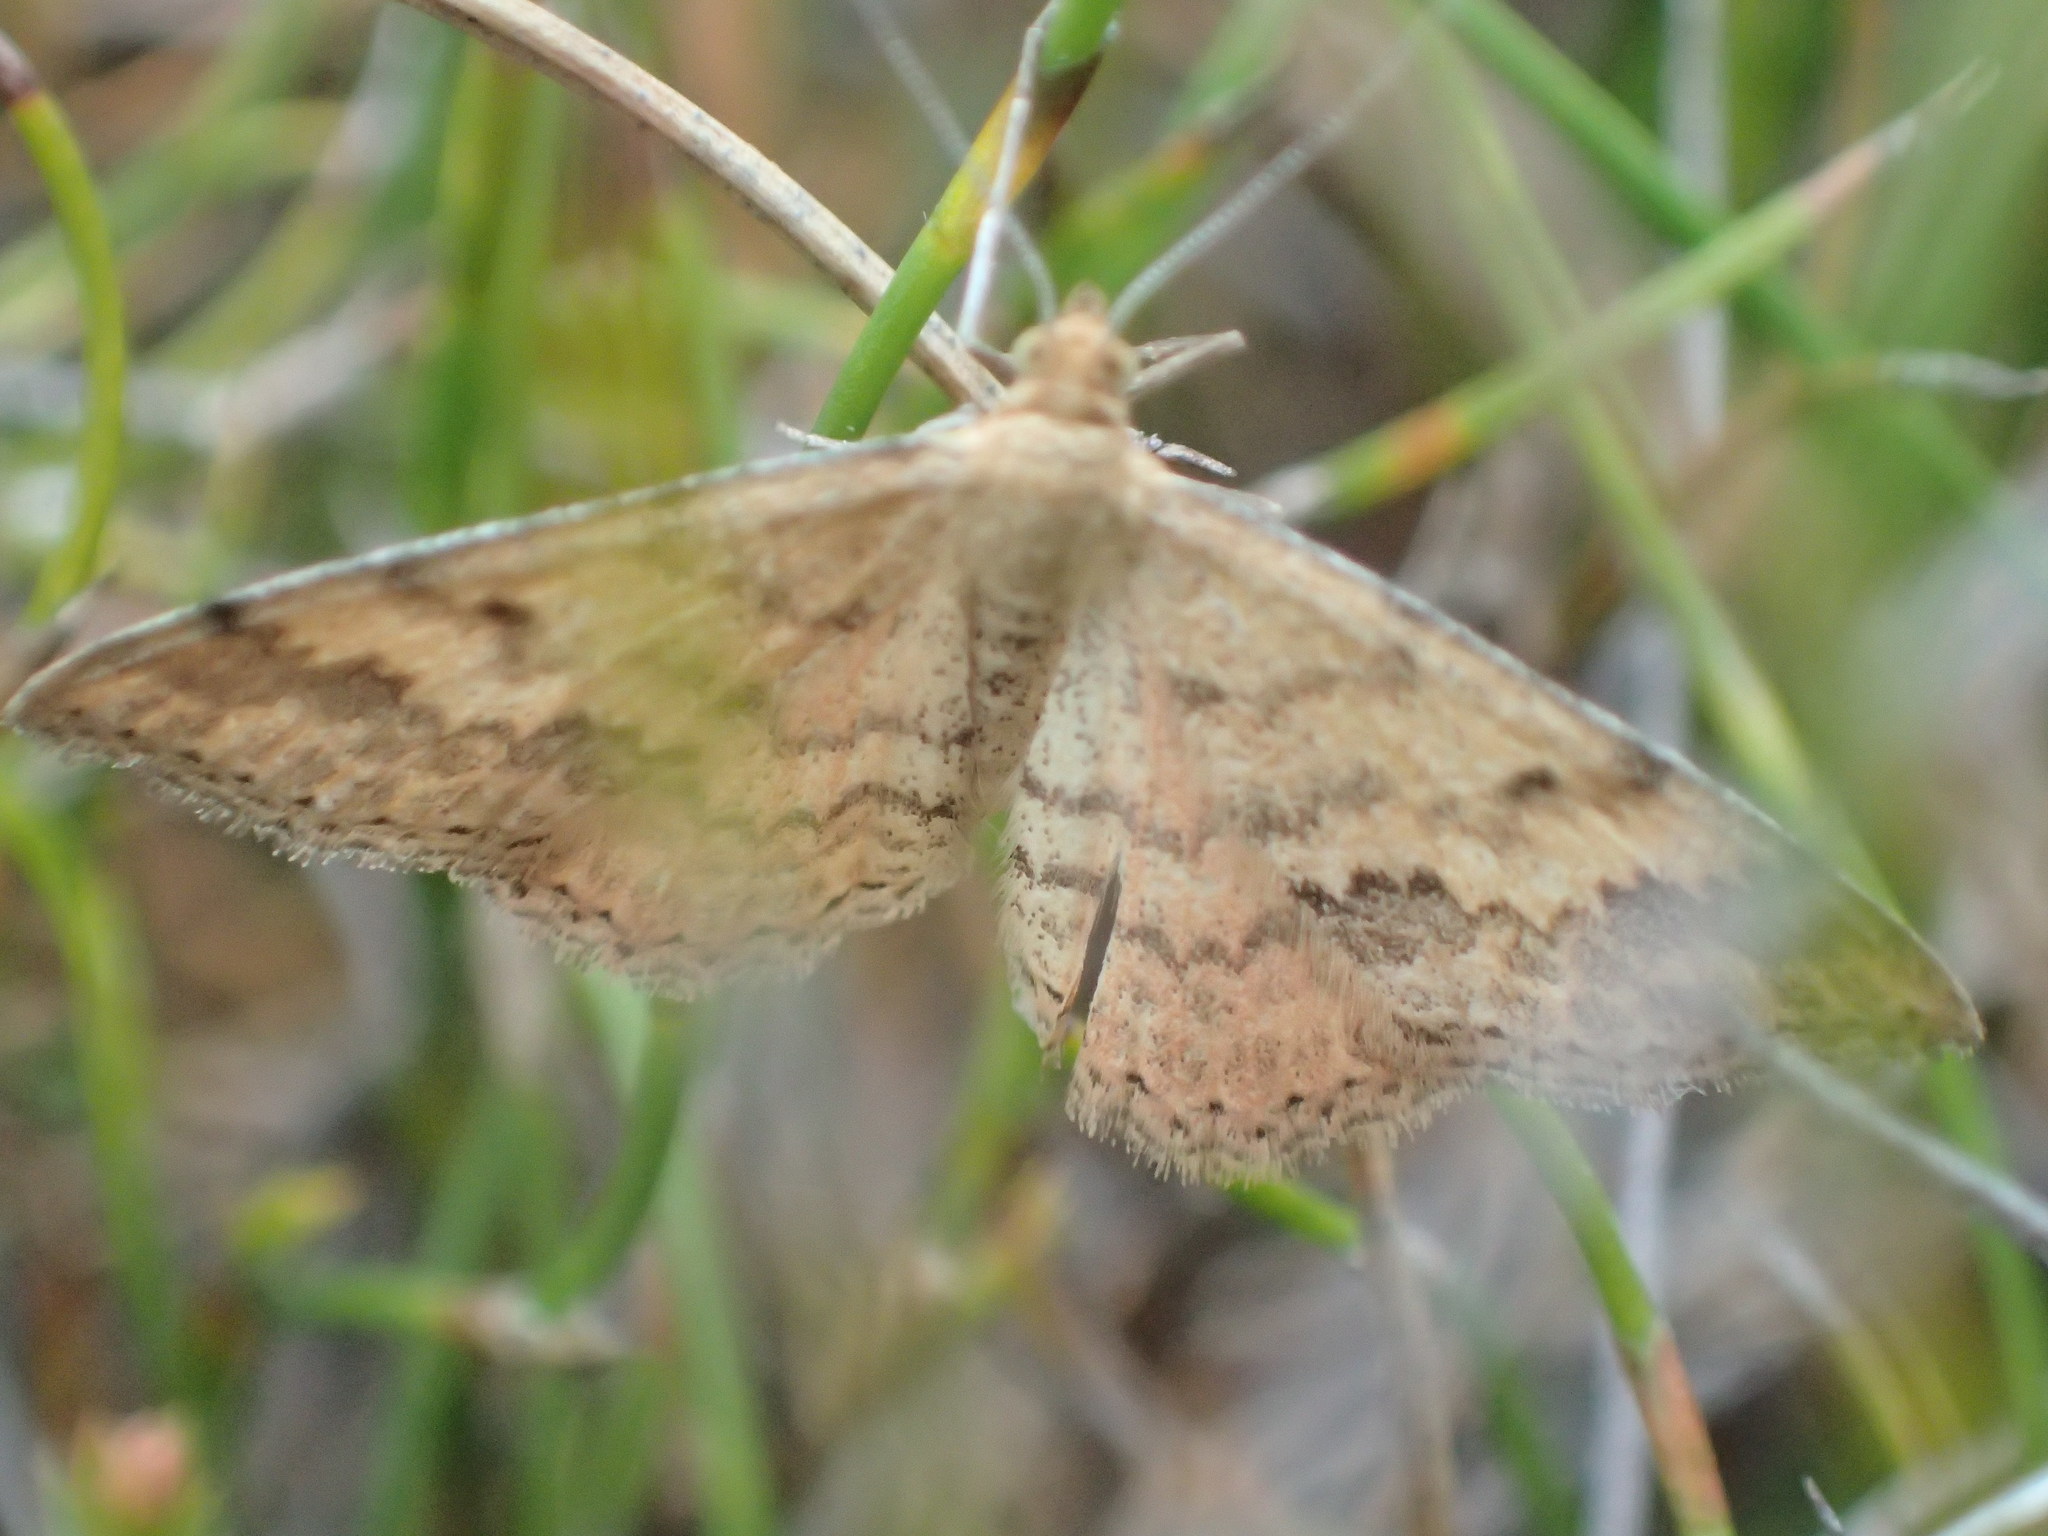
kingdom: Animalia
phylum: Arthropoda
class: Insecta
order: Lepidoptera
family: Geometridae
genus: Scopula
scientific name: Scopula rubraria
